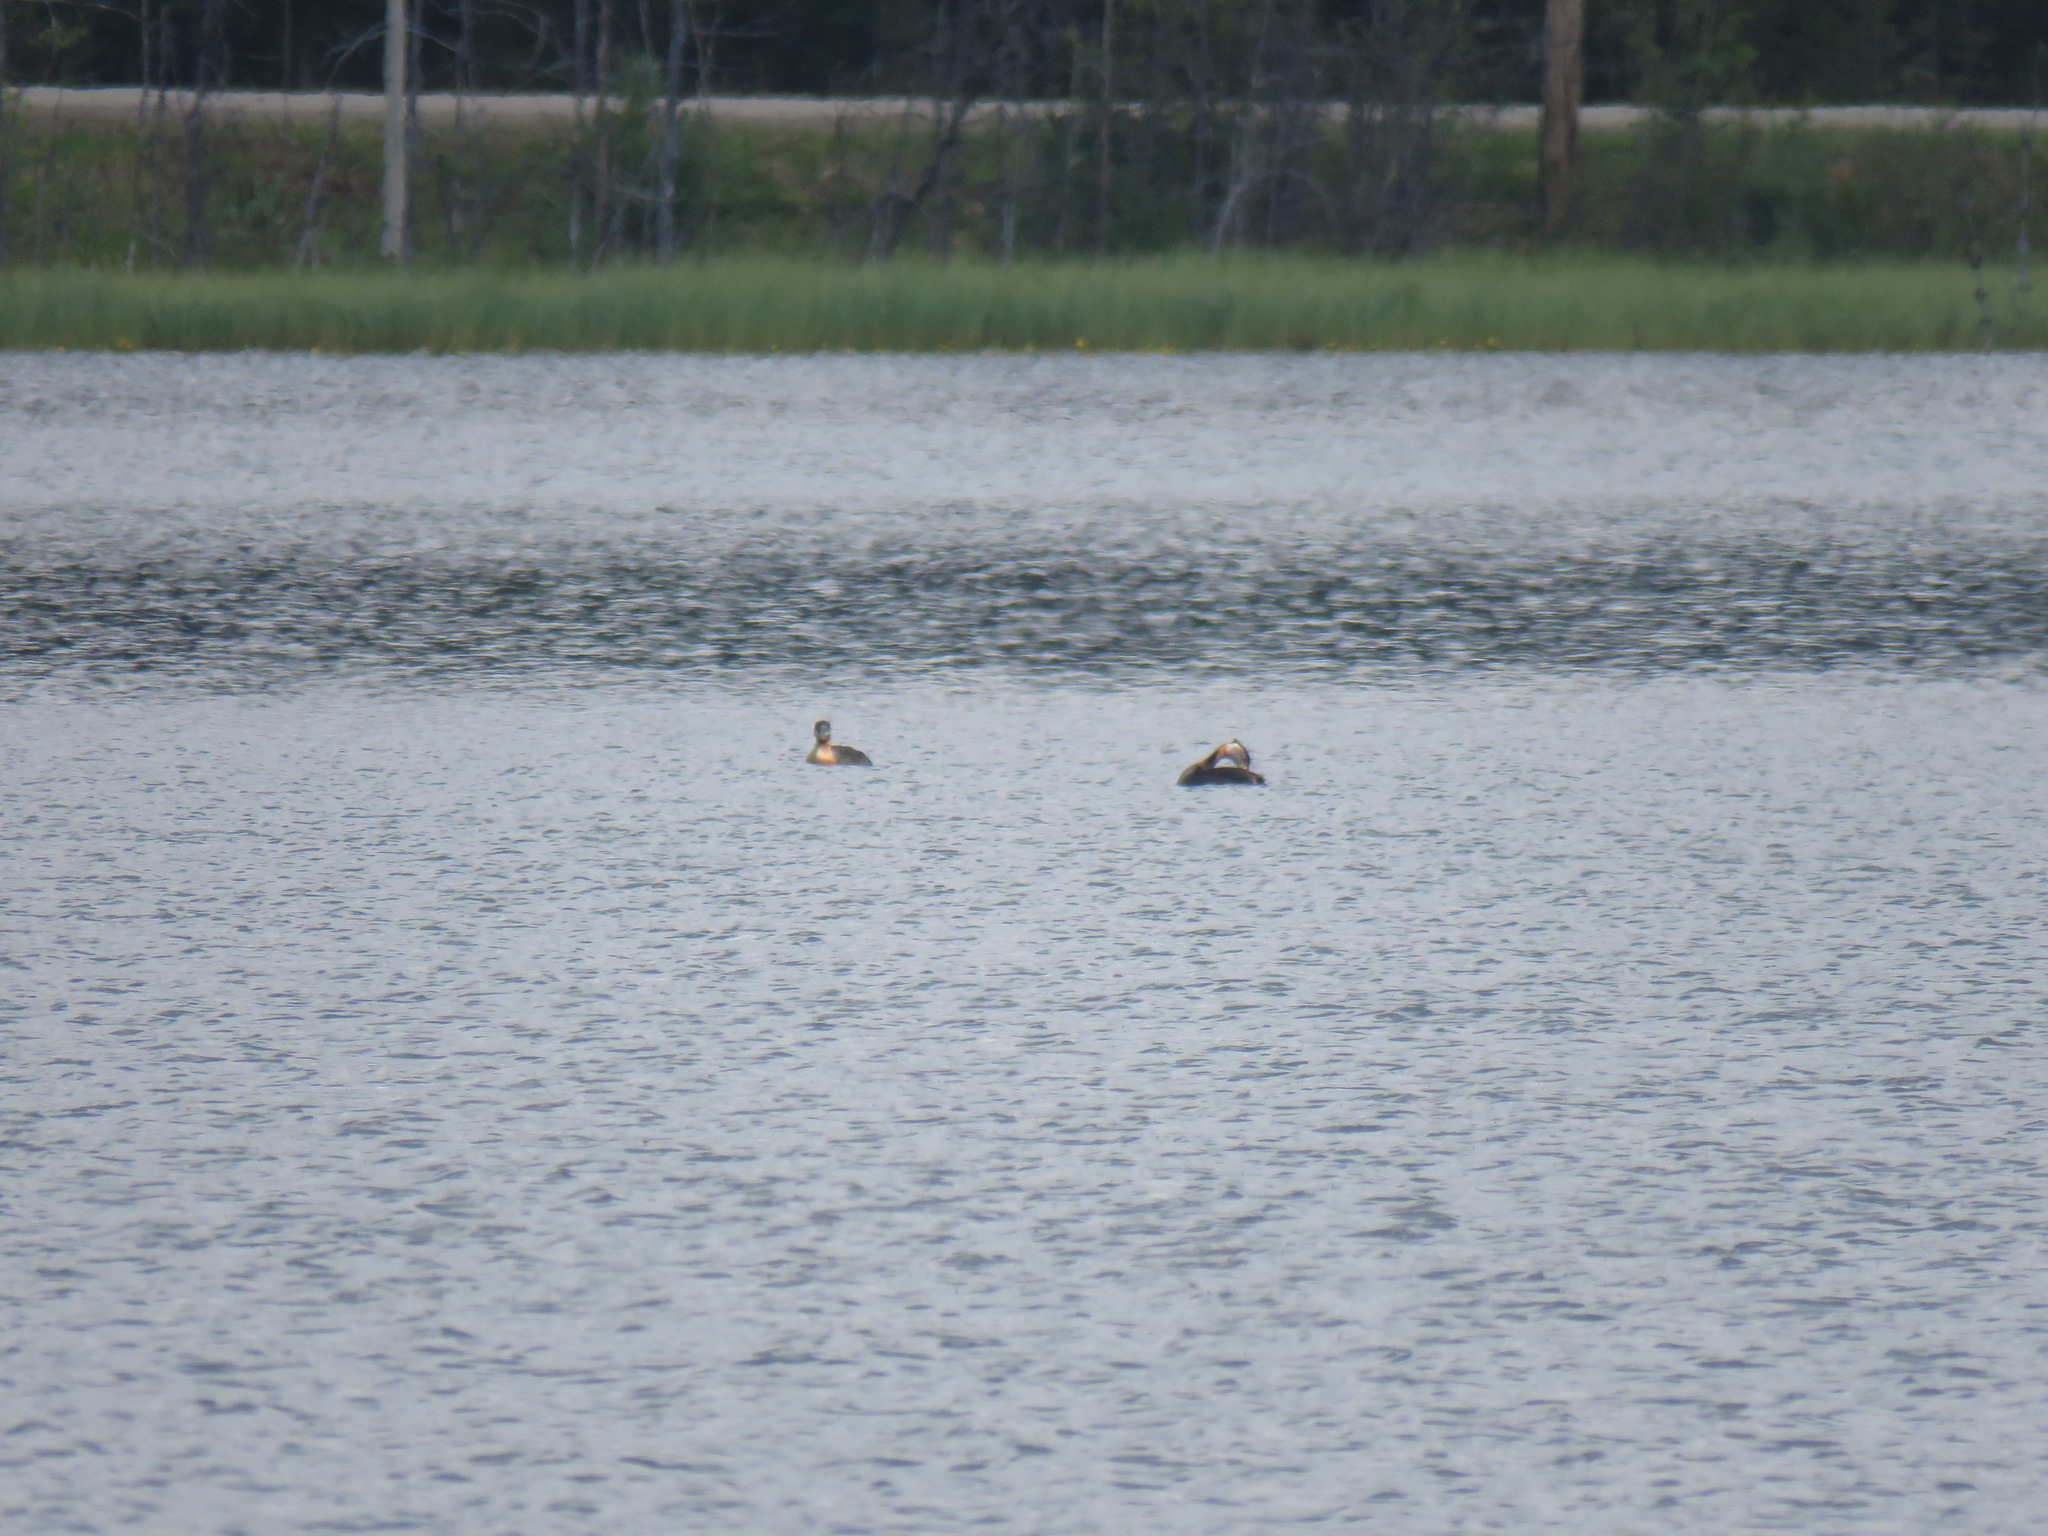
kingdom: Animalia
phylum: Chordata
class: Aves
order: Podicipediformes
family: Podicipedidae
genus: Podiceps
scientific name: Podiceps grisegena
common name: Red-necked grebe
